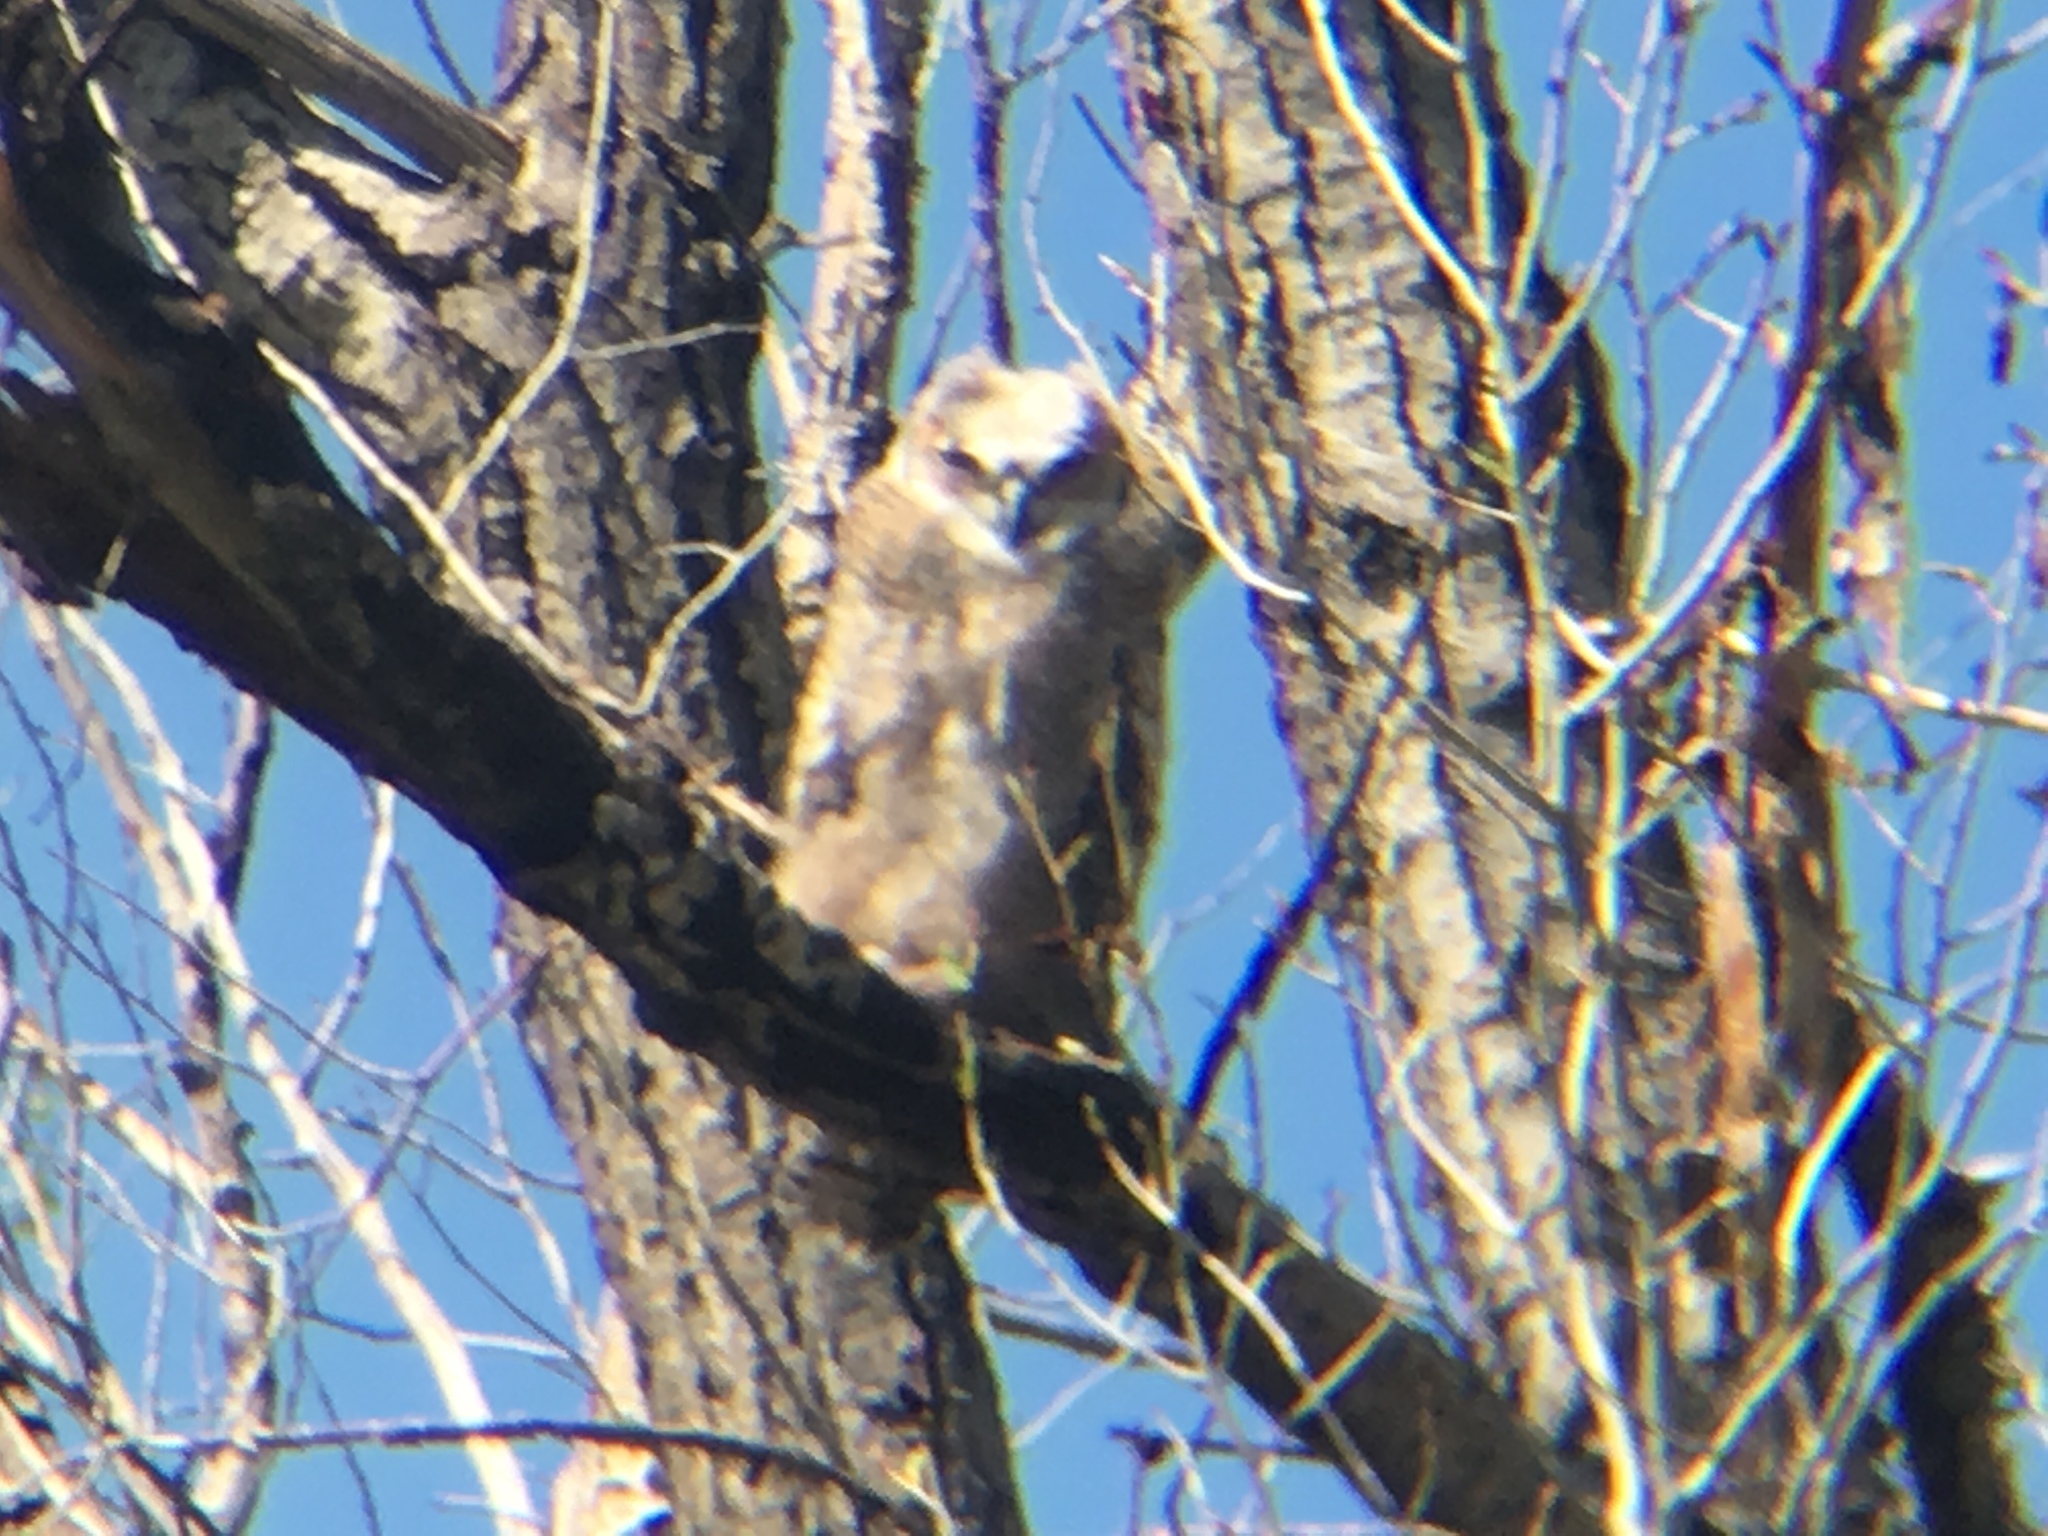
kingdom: Animalia
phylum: Chordata
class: Aves
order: Strigiformes
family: Strigidae
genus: Bubo
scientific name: Bubo virginianus
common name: Great horned owl
